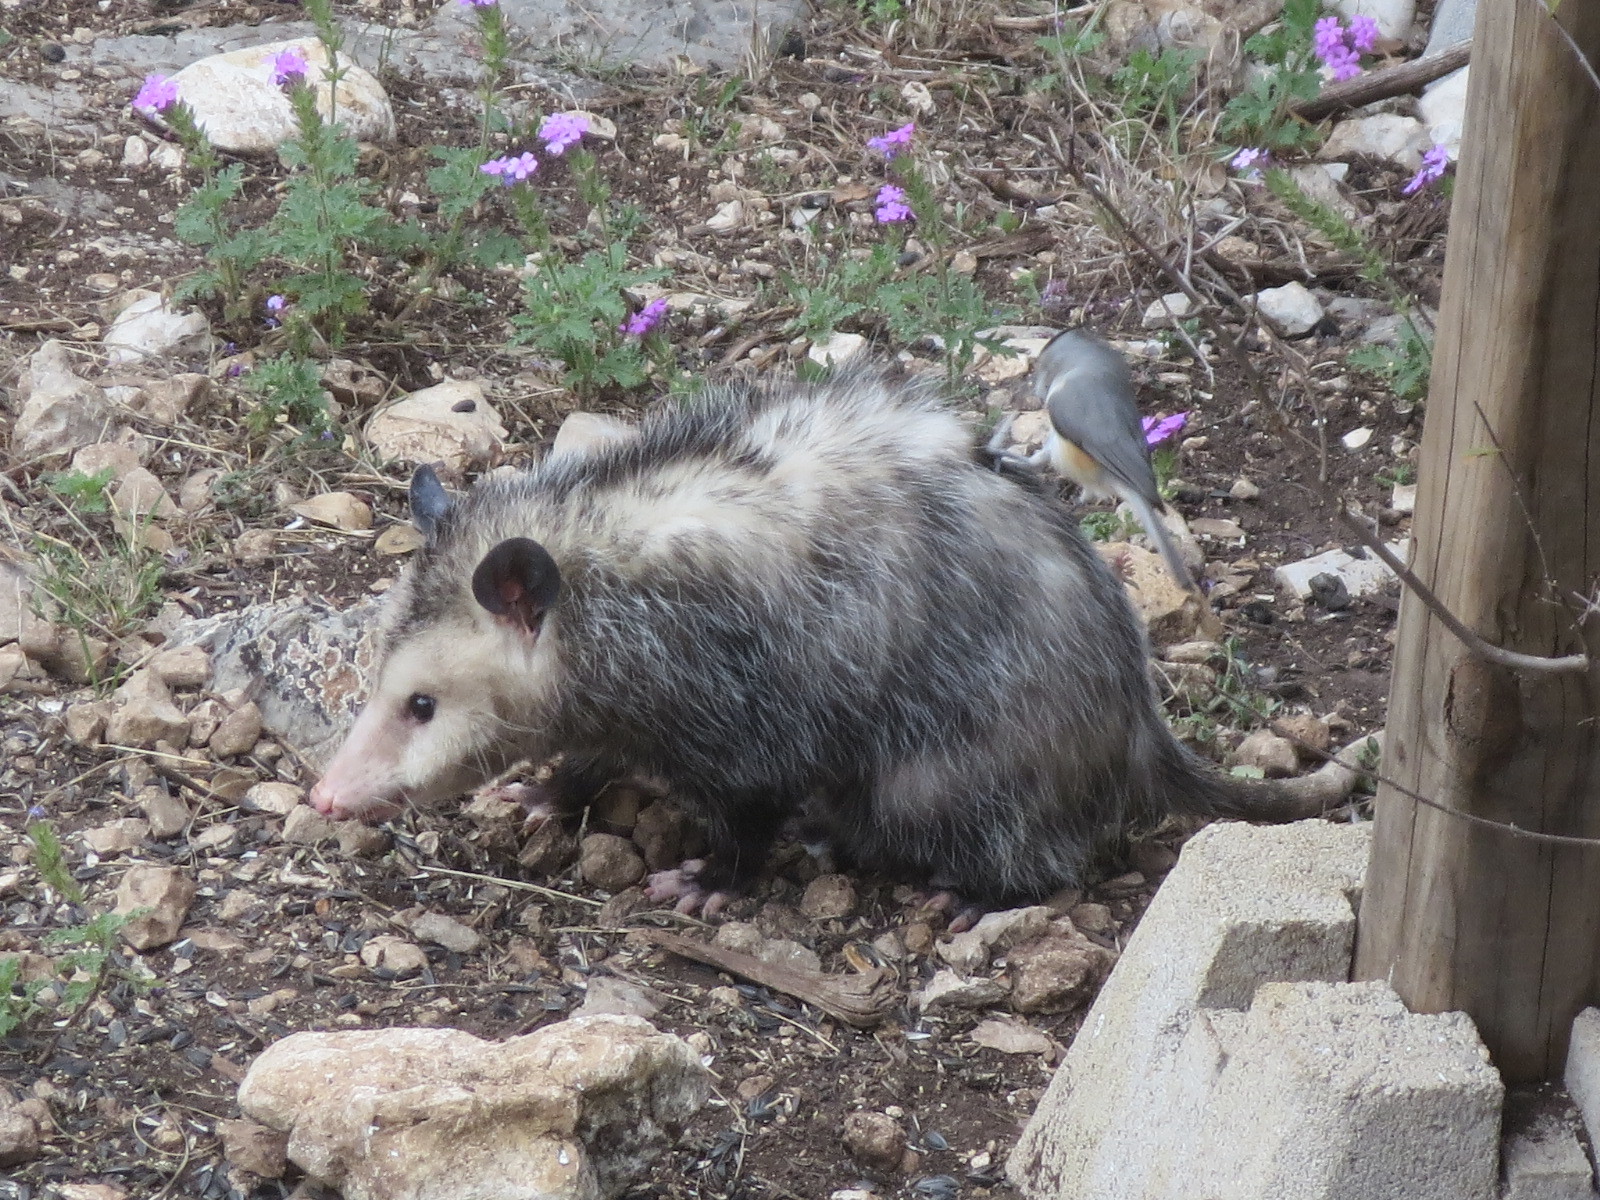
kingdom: Animalia
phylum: Chordata
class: Mammalia
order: Didelphimorphia
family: Didelphidae
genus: Didelphis
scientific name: Didelphis virginiana
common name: Virginia opossum
